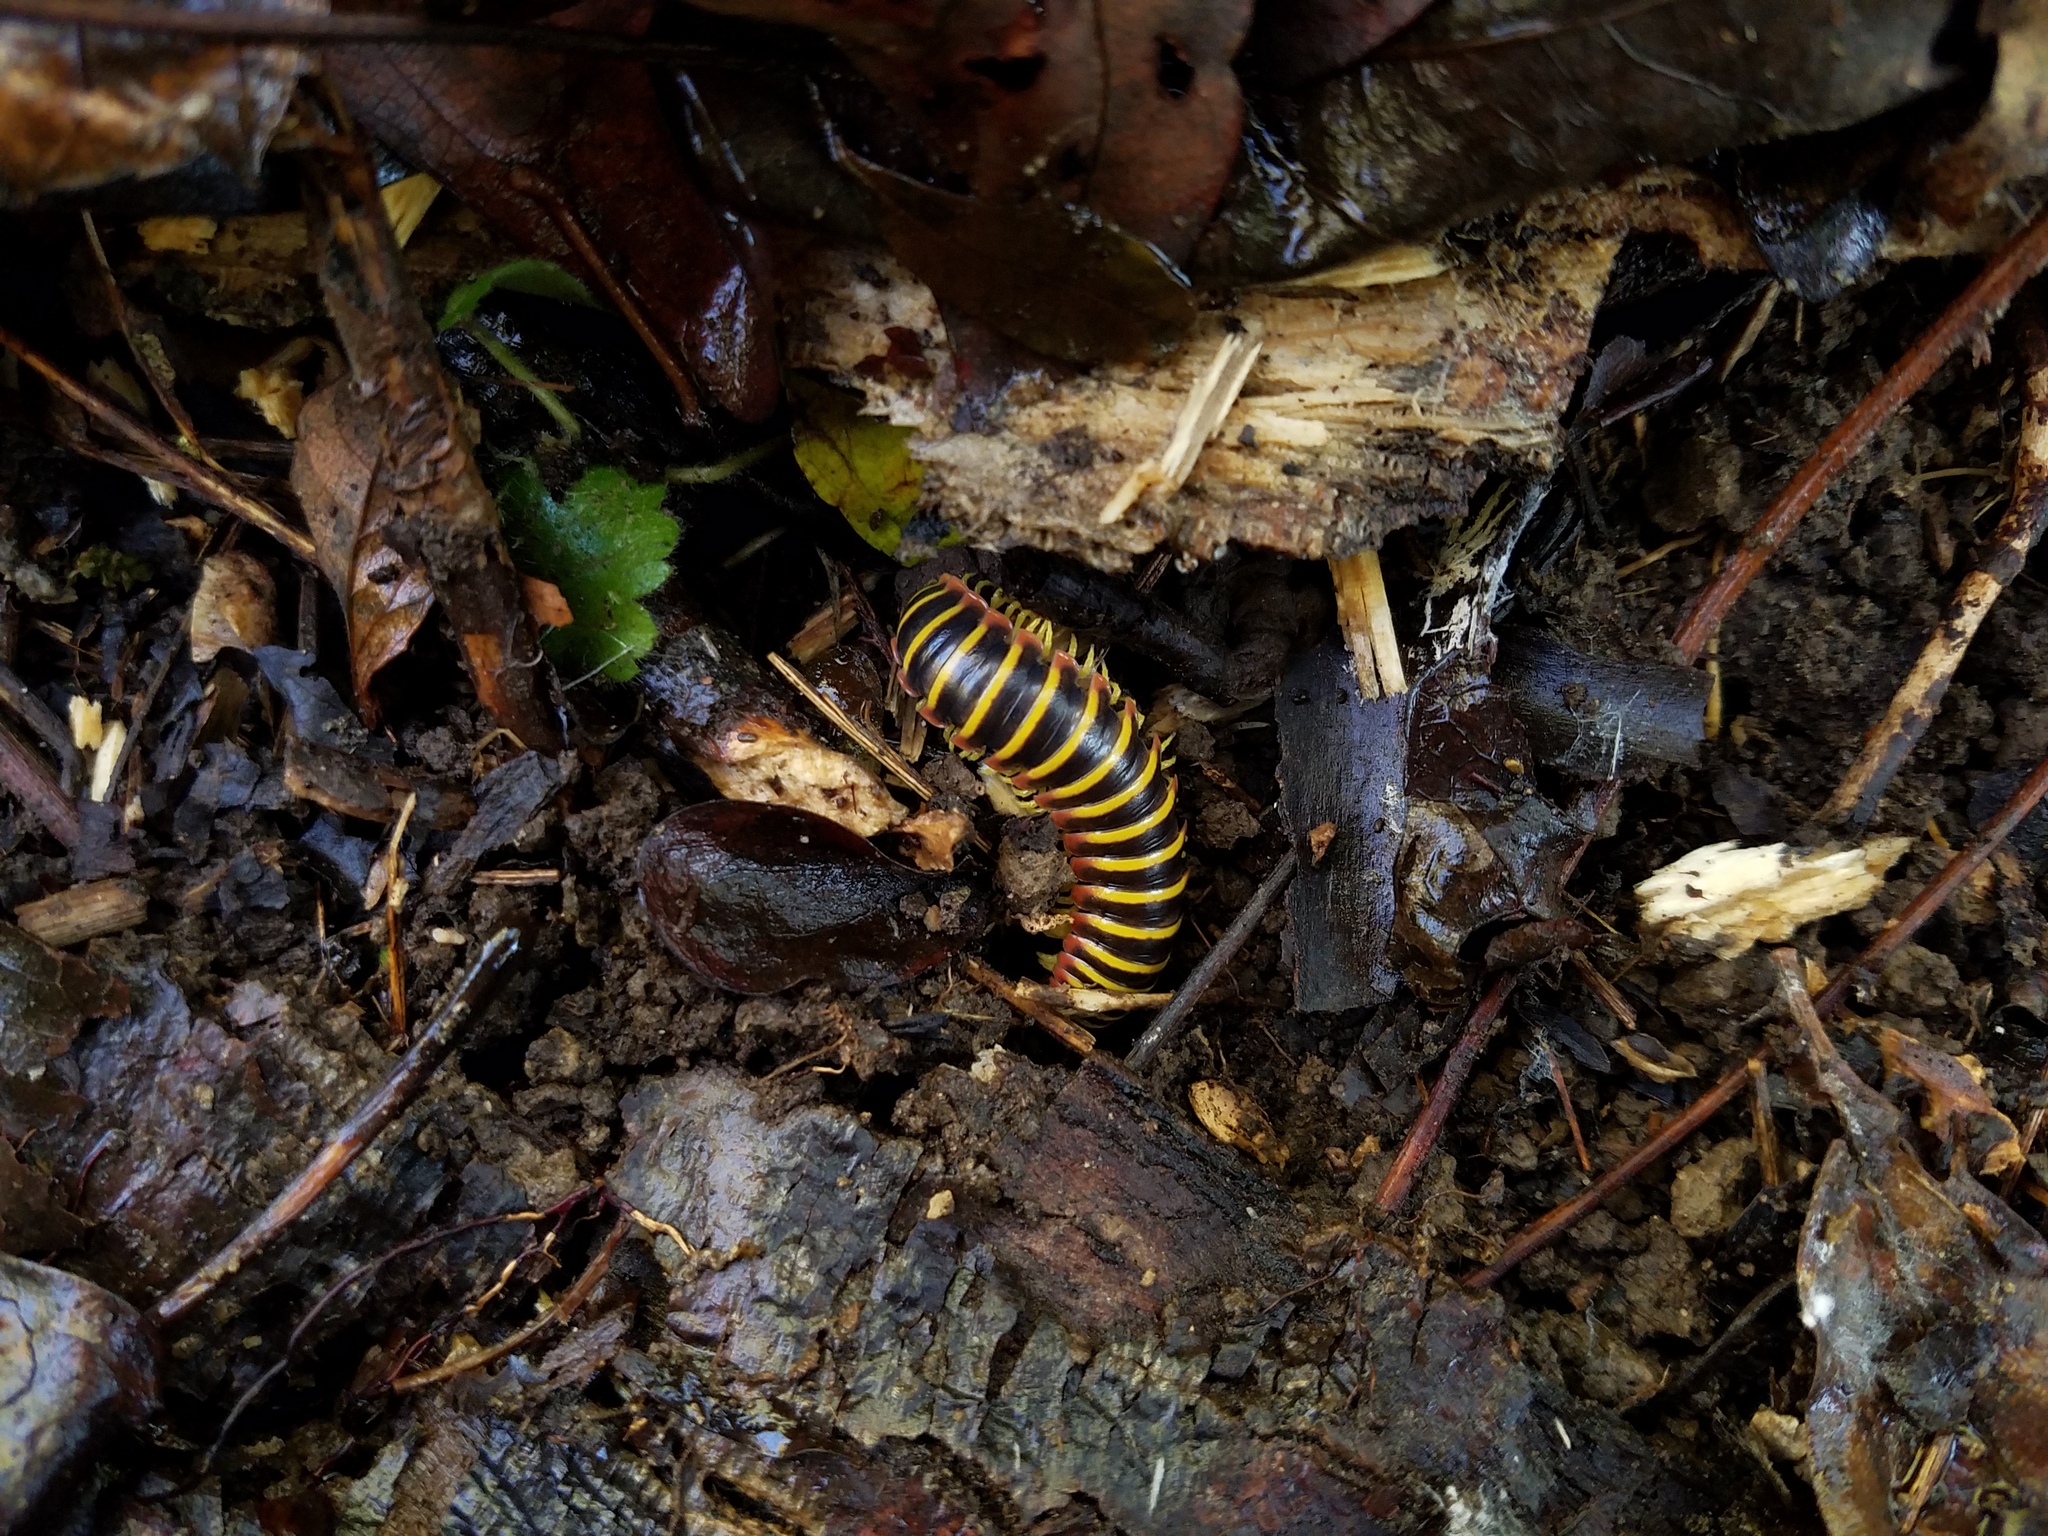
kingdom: Animalia
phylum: Arthropoda
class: Diplopoda
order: Polydesmida
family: Xystodesmidae
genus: Apheloria
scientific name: Apheloria virginiensis
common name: Black-and-gold flat millipede
